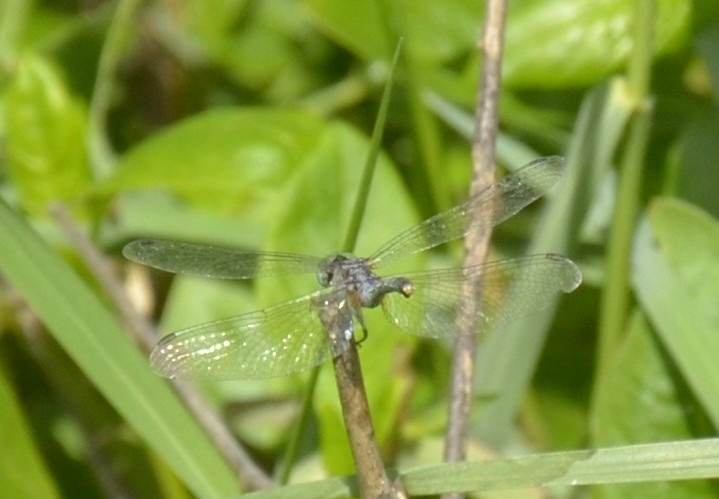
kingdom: Animalia
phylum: Arthropoda
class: Insecta
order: Odonata
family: Libellulidae
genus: Diplacodes
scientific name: Diplacodes trivialis
